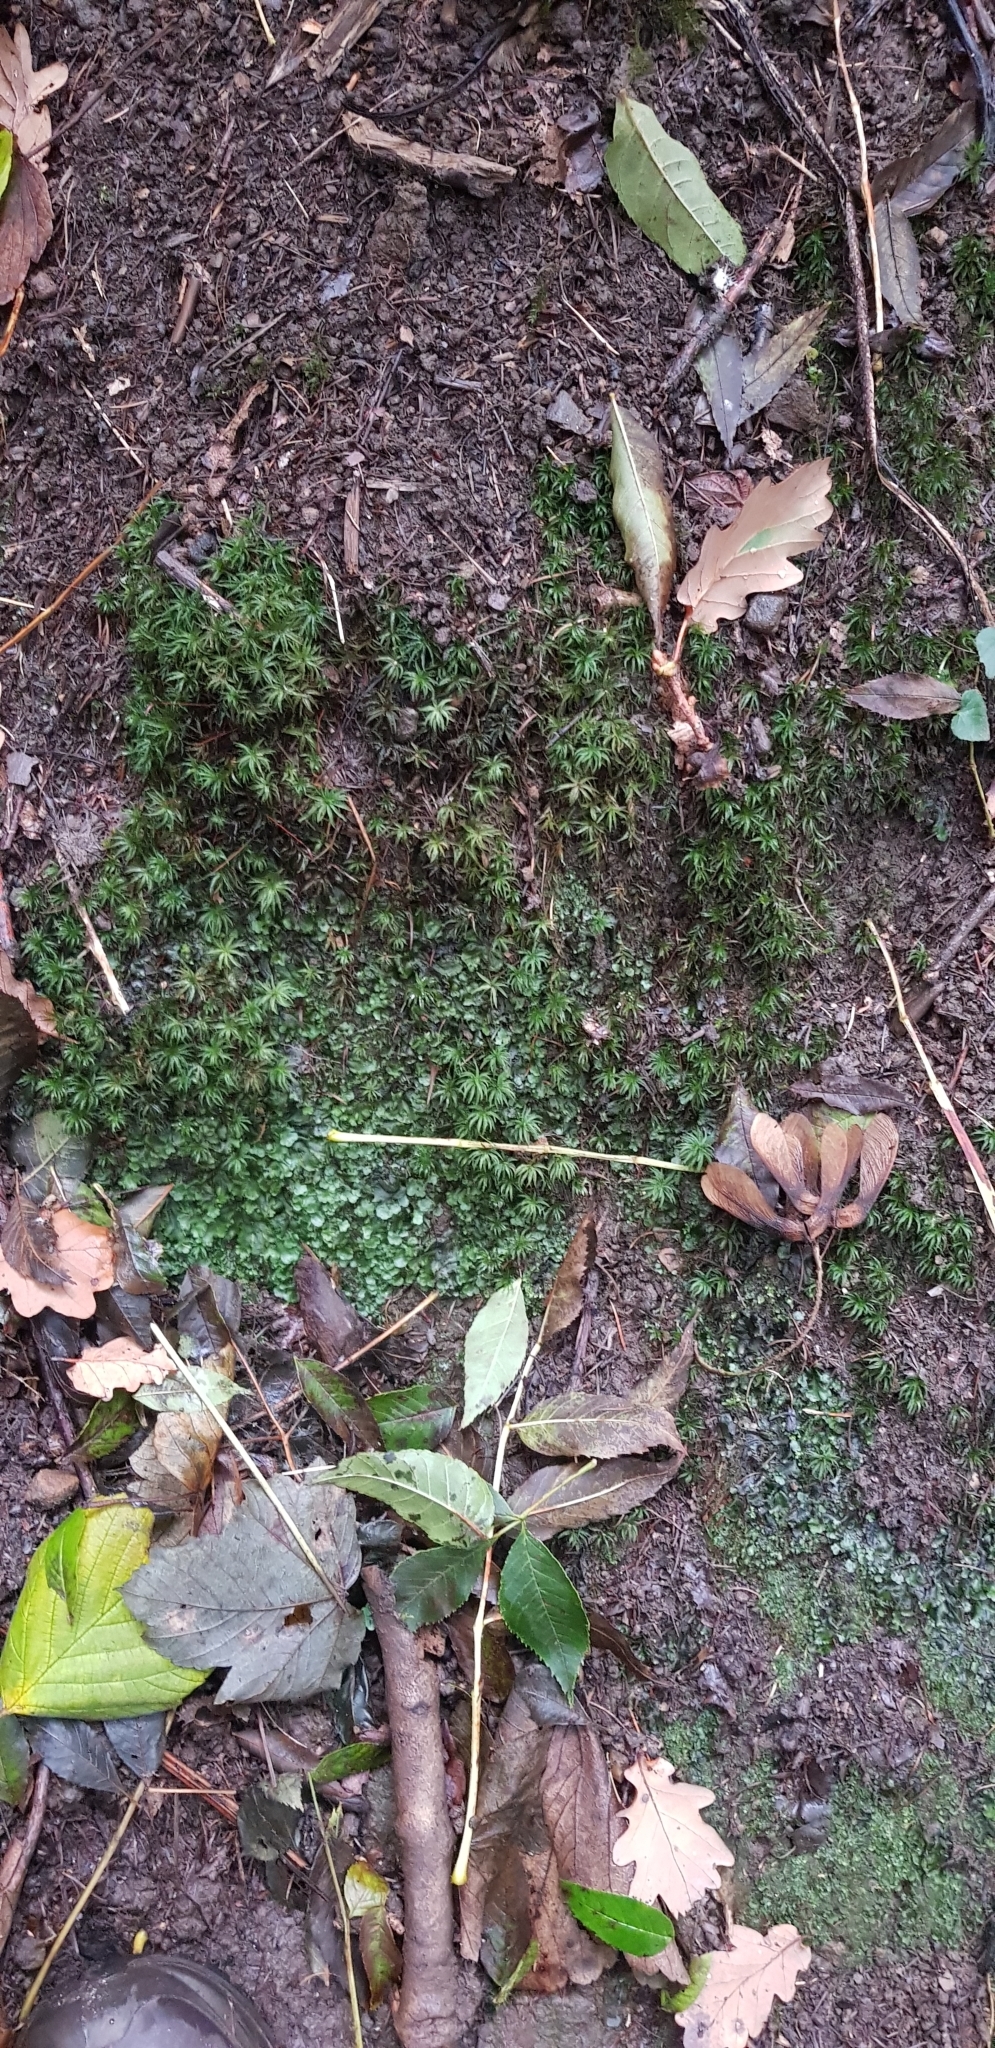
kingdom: Plantae
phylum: Bryophyta
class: Polytrichopsida
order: Polytrichales
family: Polytrichaceae
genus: Atrichum
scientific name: Atrichum undulatum
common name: Common smoothcap
